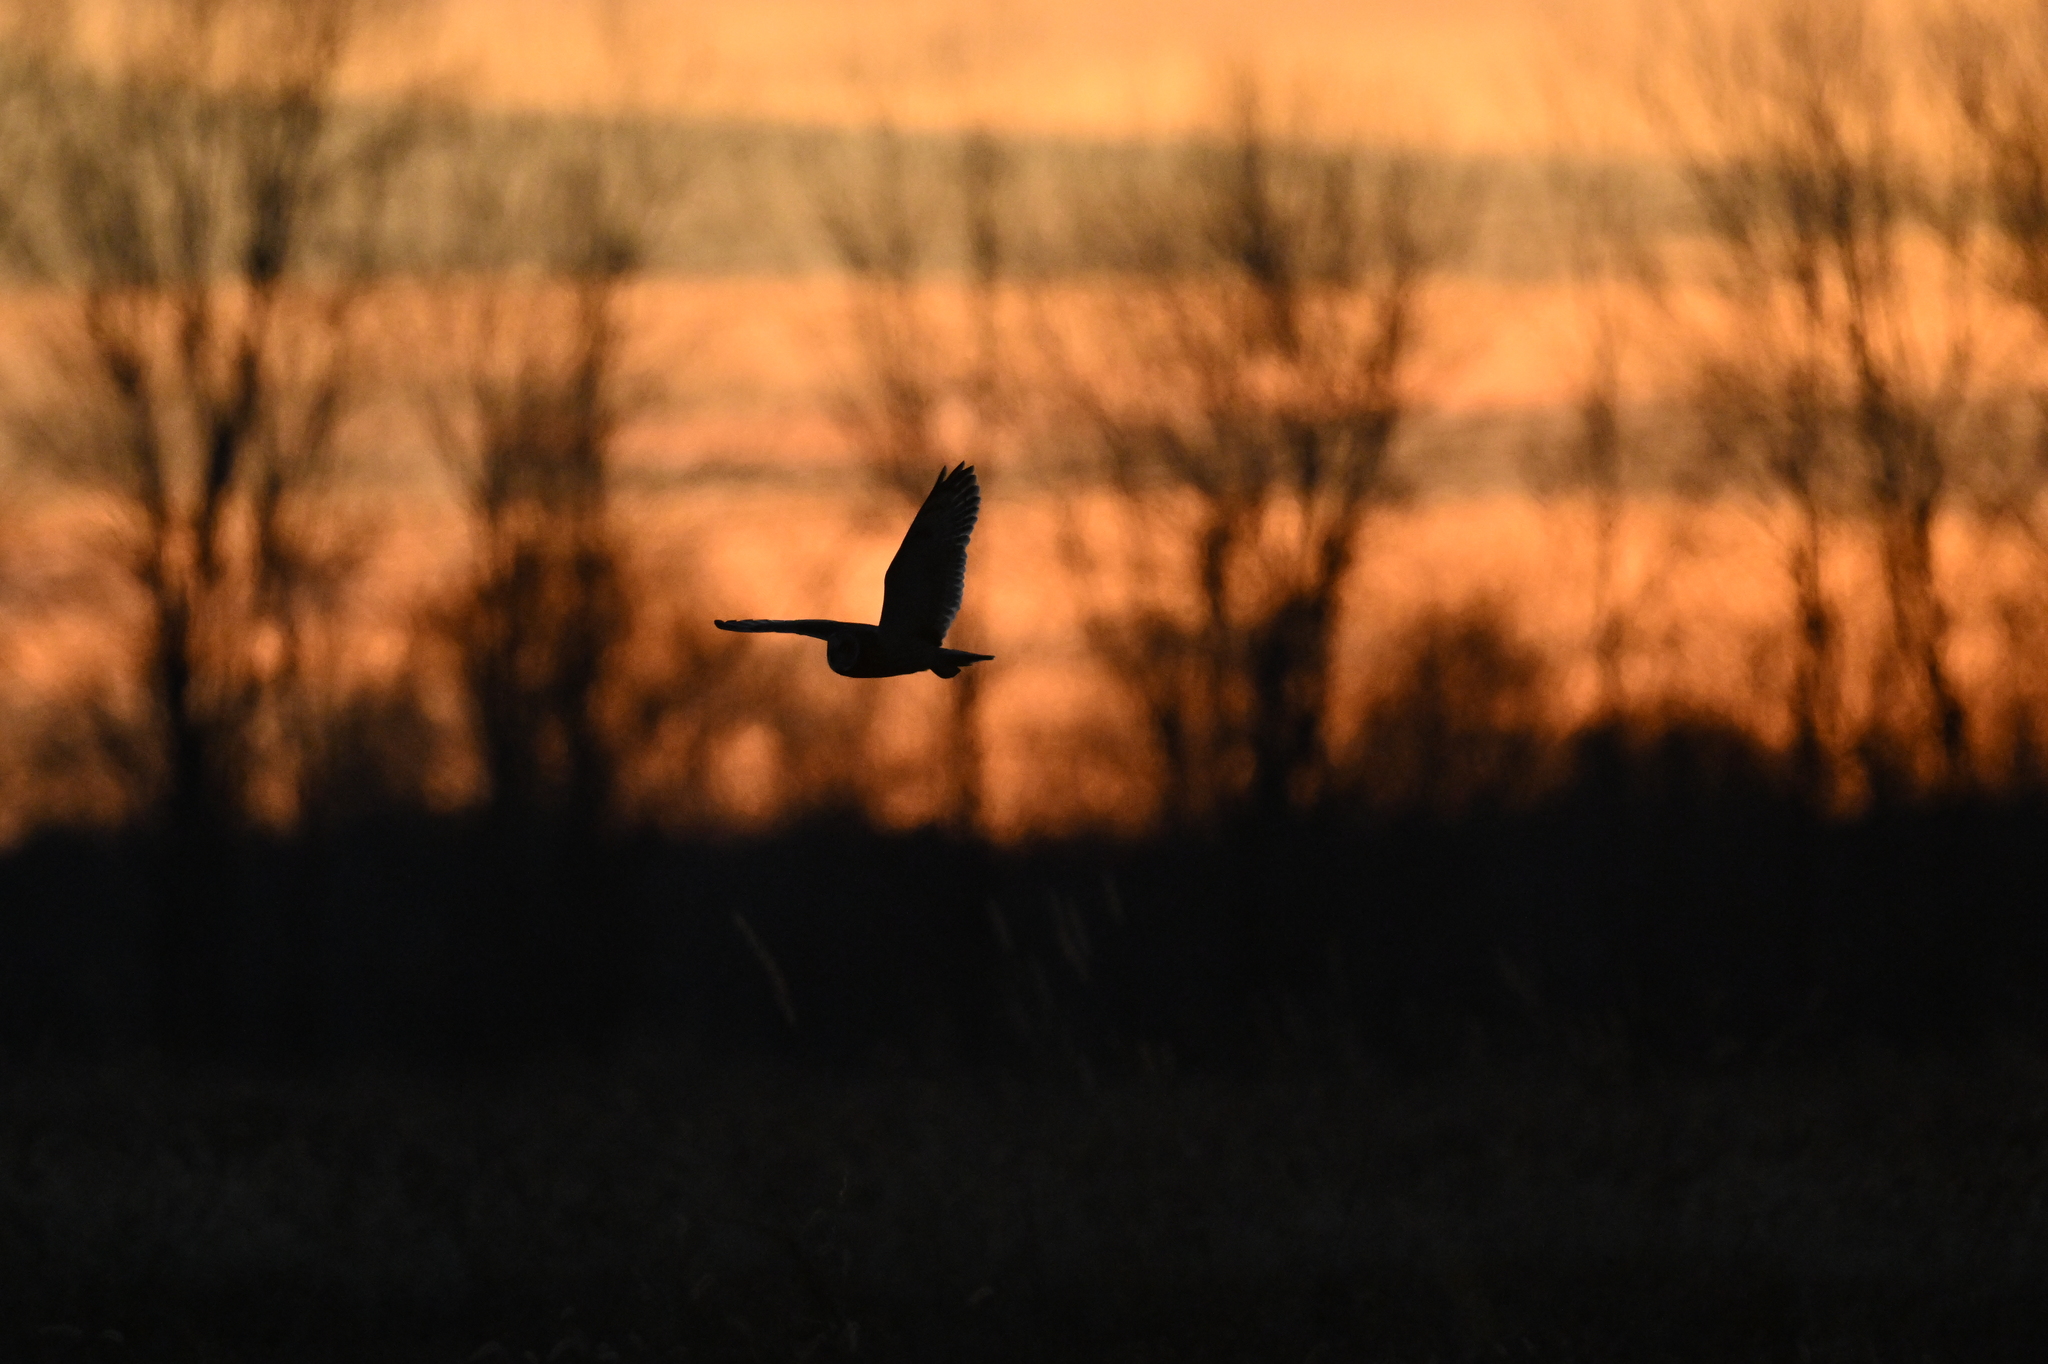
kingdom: Animalia
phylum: Chordata
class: Aves
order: Strigiformes
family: Strigidae
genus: Asio
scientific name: Asio flammeus
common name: Short-eared owl
